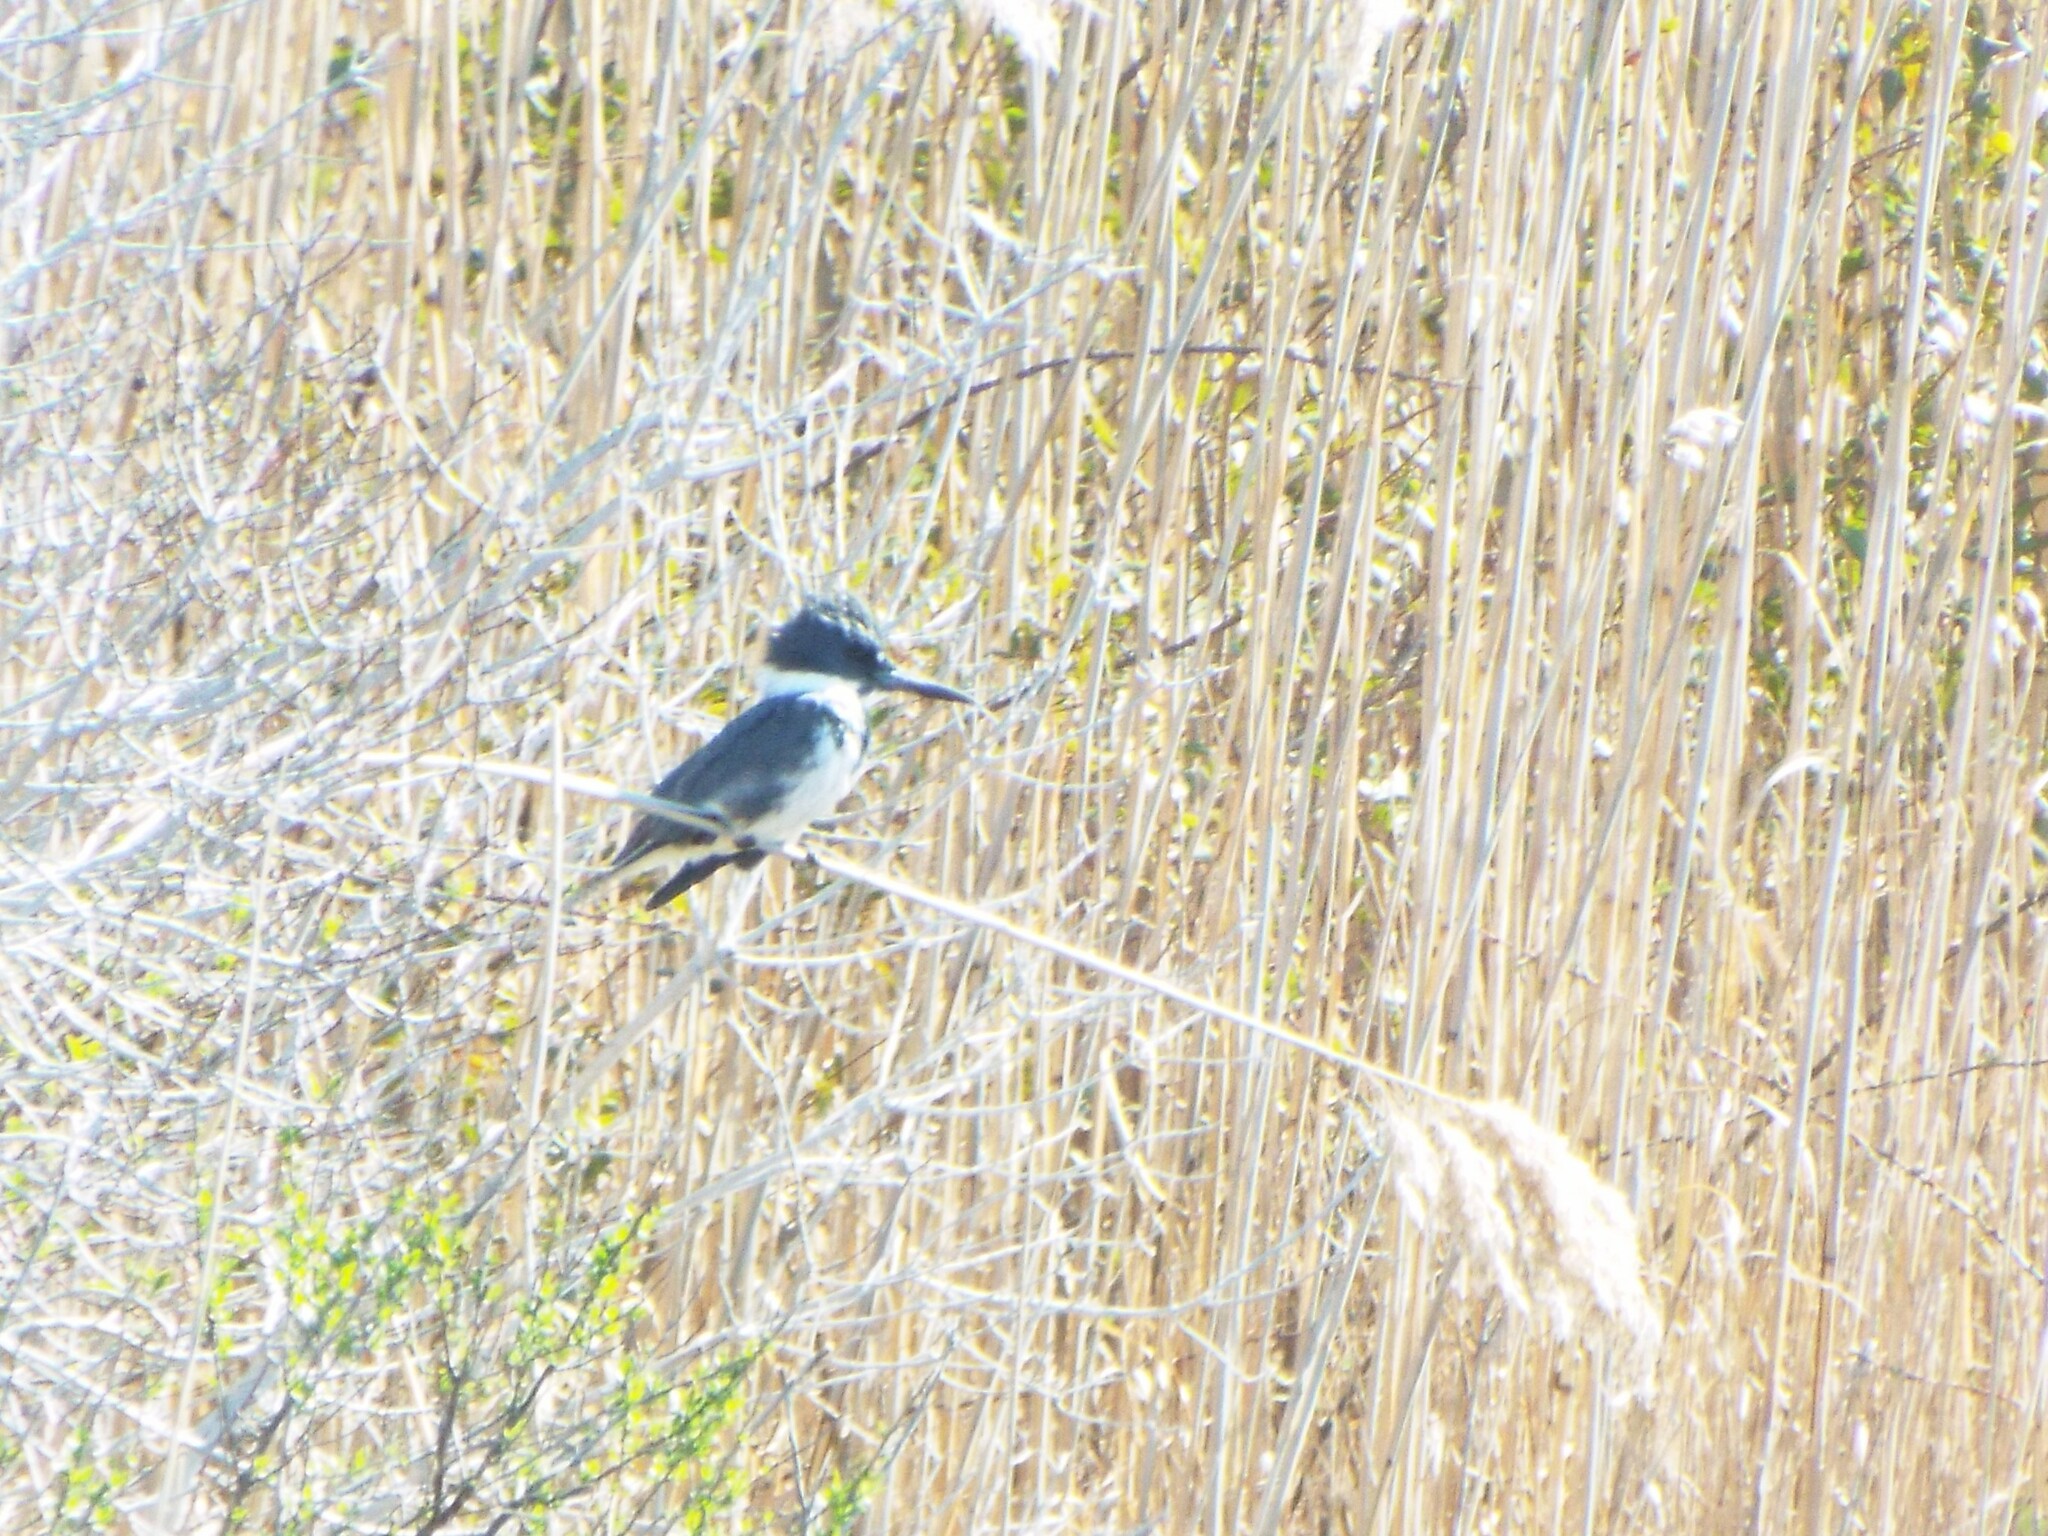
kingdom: Animalia
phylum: Chordata
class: Aves
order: Coraciiformes
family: Alcedinidae
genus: Megaceryle
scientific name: Megaceryle alcyon
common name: Belted kingfisher
